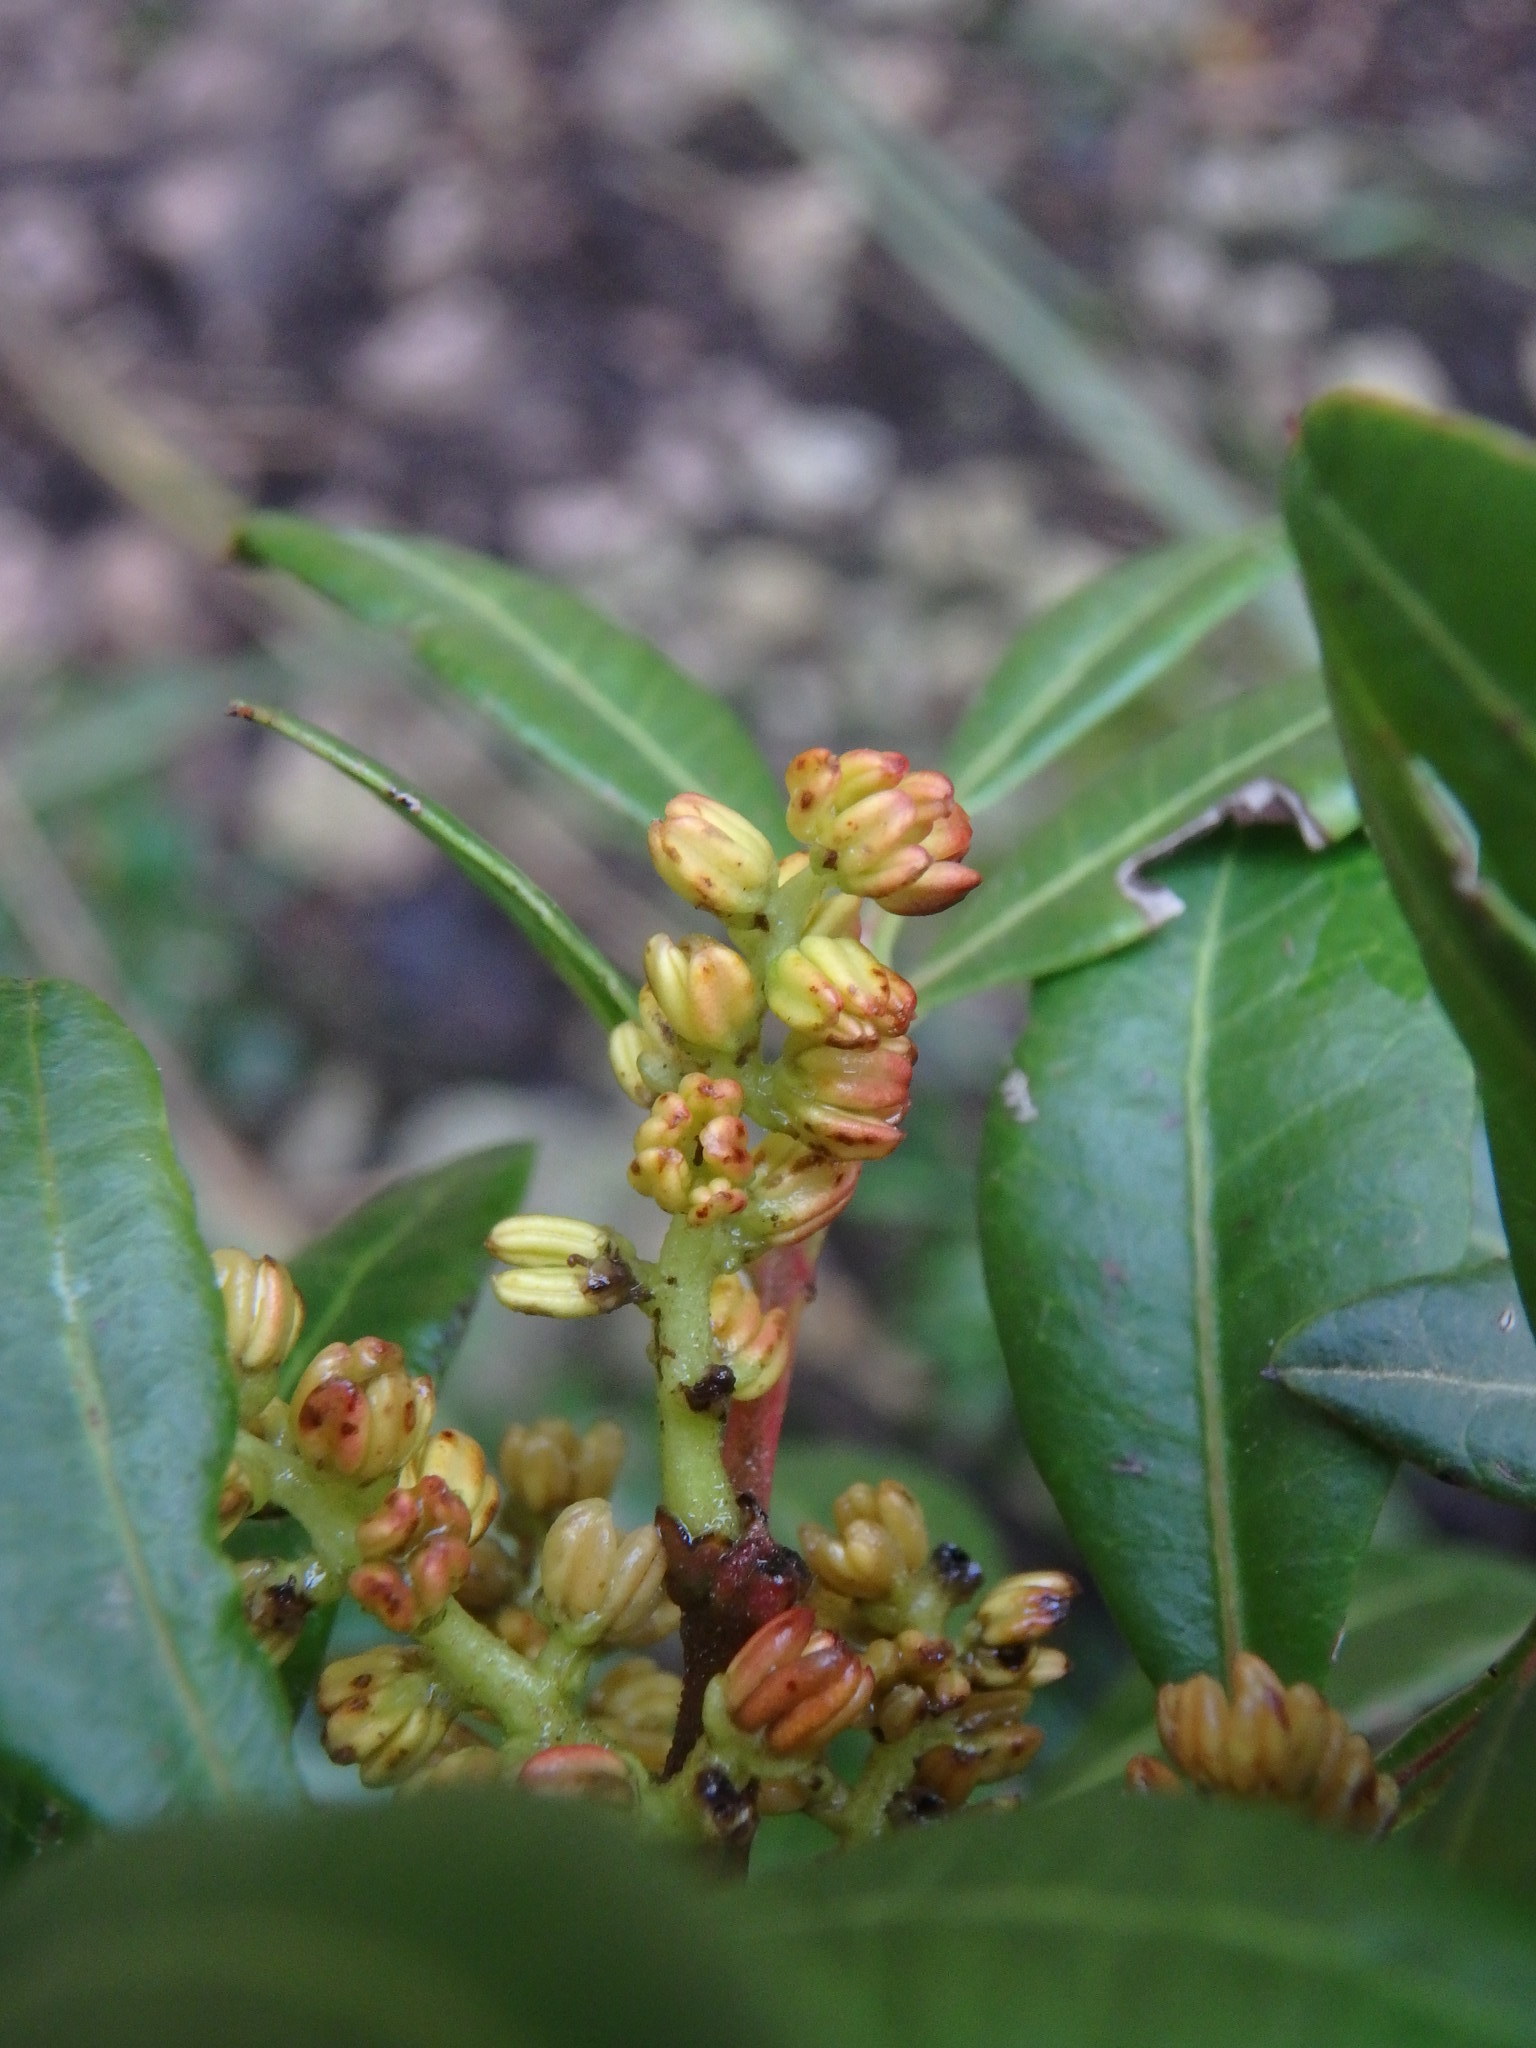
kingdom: Plantae
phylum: Tracheophyta
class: Magnoliopsida
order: Sapindales
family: Anacardiaceae
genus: Pistacia
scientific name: Pistacia lentiscus
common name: Lentisk
